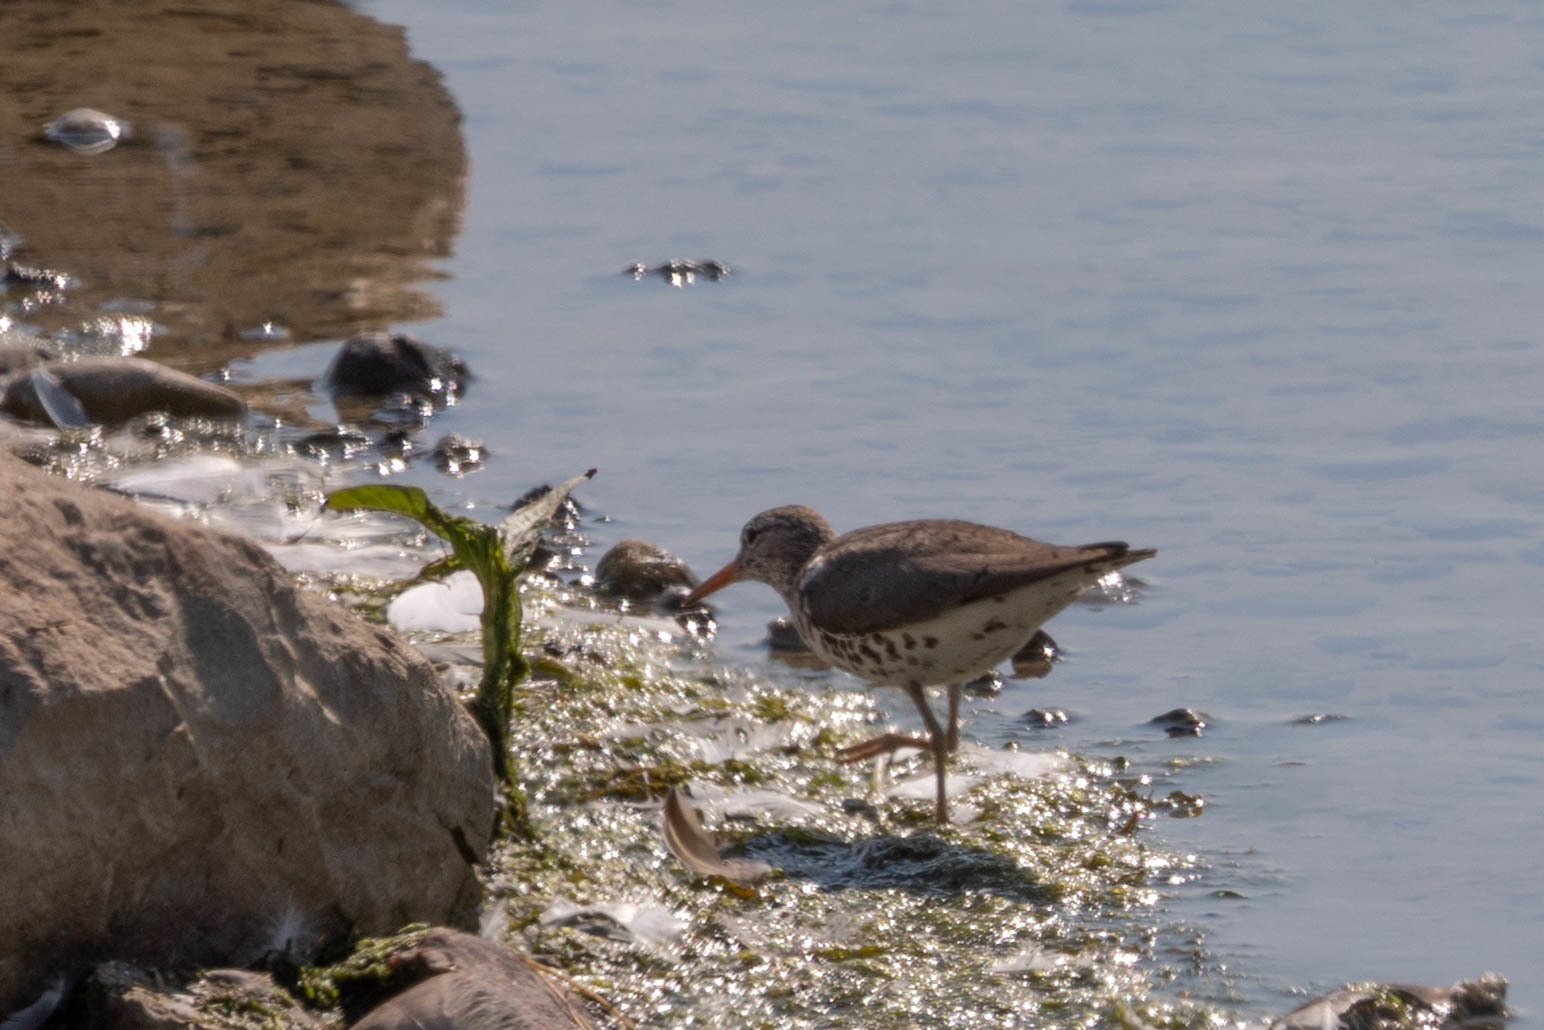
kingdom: Animalia
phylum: Chordata
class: Aves
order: Charadriiformes
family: Scolopacidae
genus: Actitis
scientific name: Actitis macularius
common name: Spotted sandpiper
